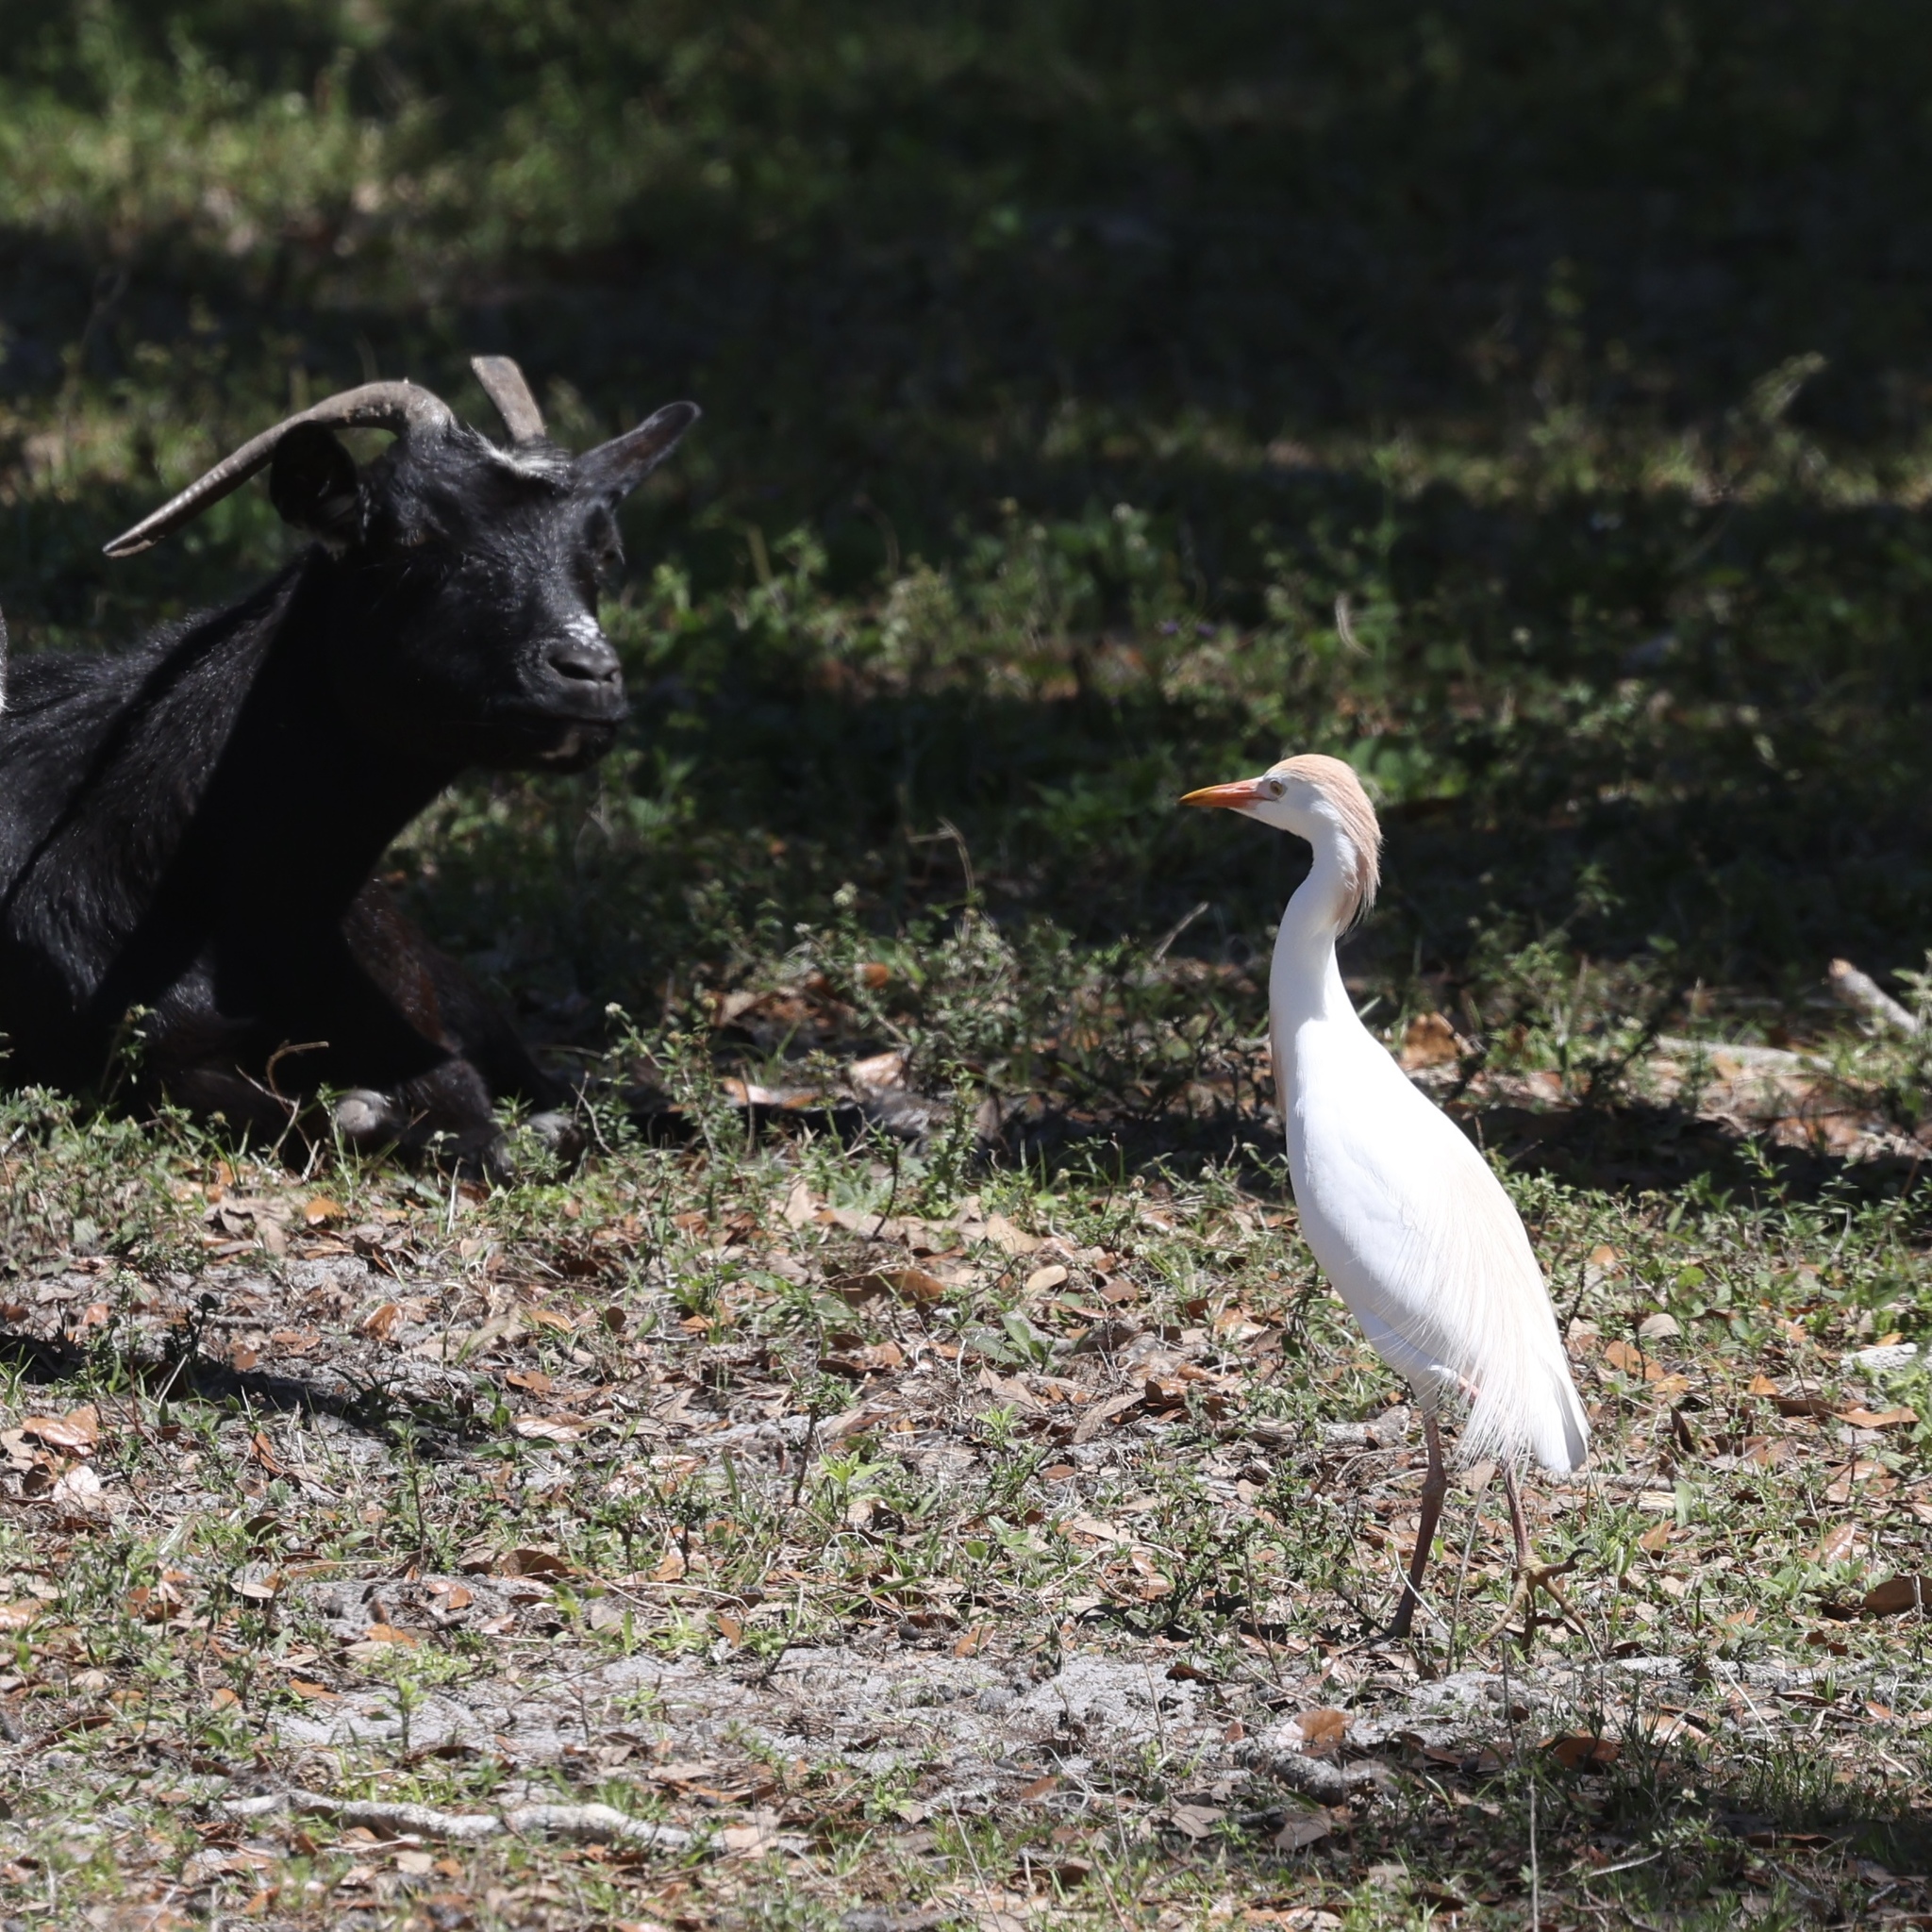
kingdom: Animalia
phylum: Chordata
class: Aves
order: Pelecaniformes
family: Ardeidae
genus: Bubulcus
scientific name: Bubulcus ibis
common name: Cattle egret
